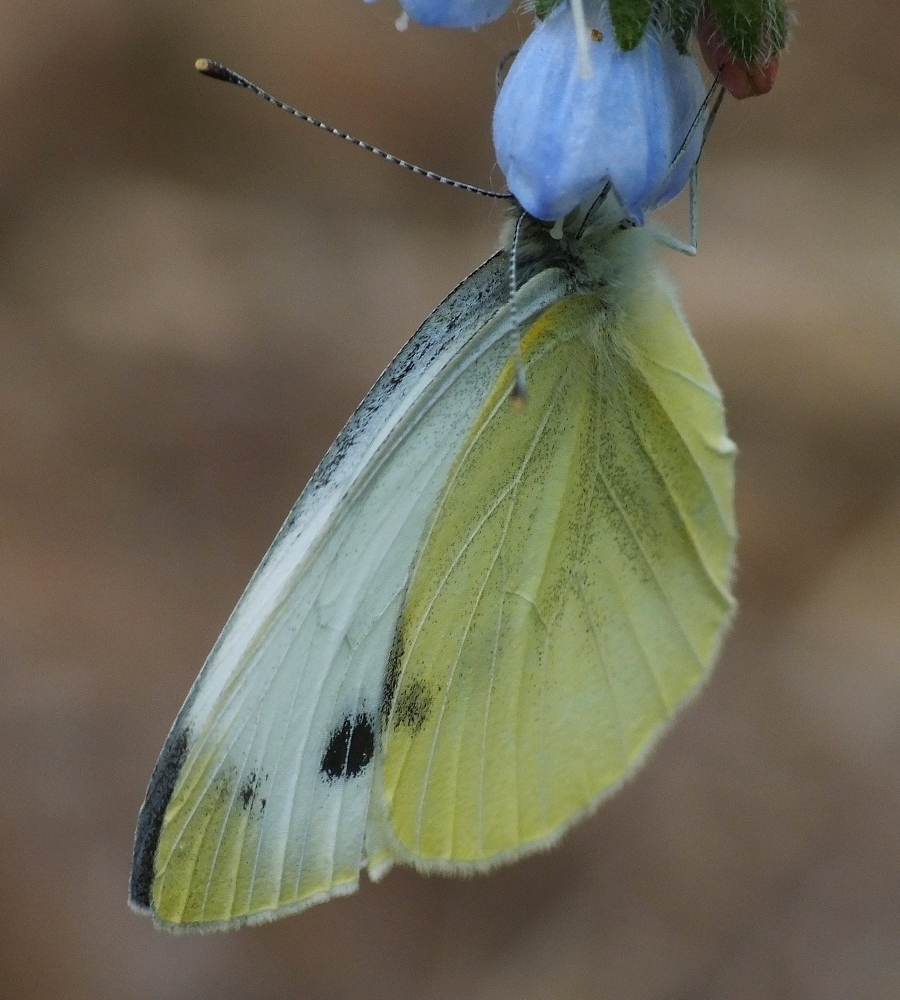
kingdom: Animalia
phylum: Arthropoda
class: Insecta
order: Lepidoptera
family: Pieridae
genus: Pieris
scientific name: Pieris napi
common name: Green-veined white
